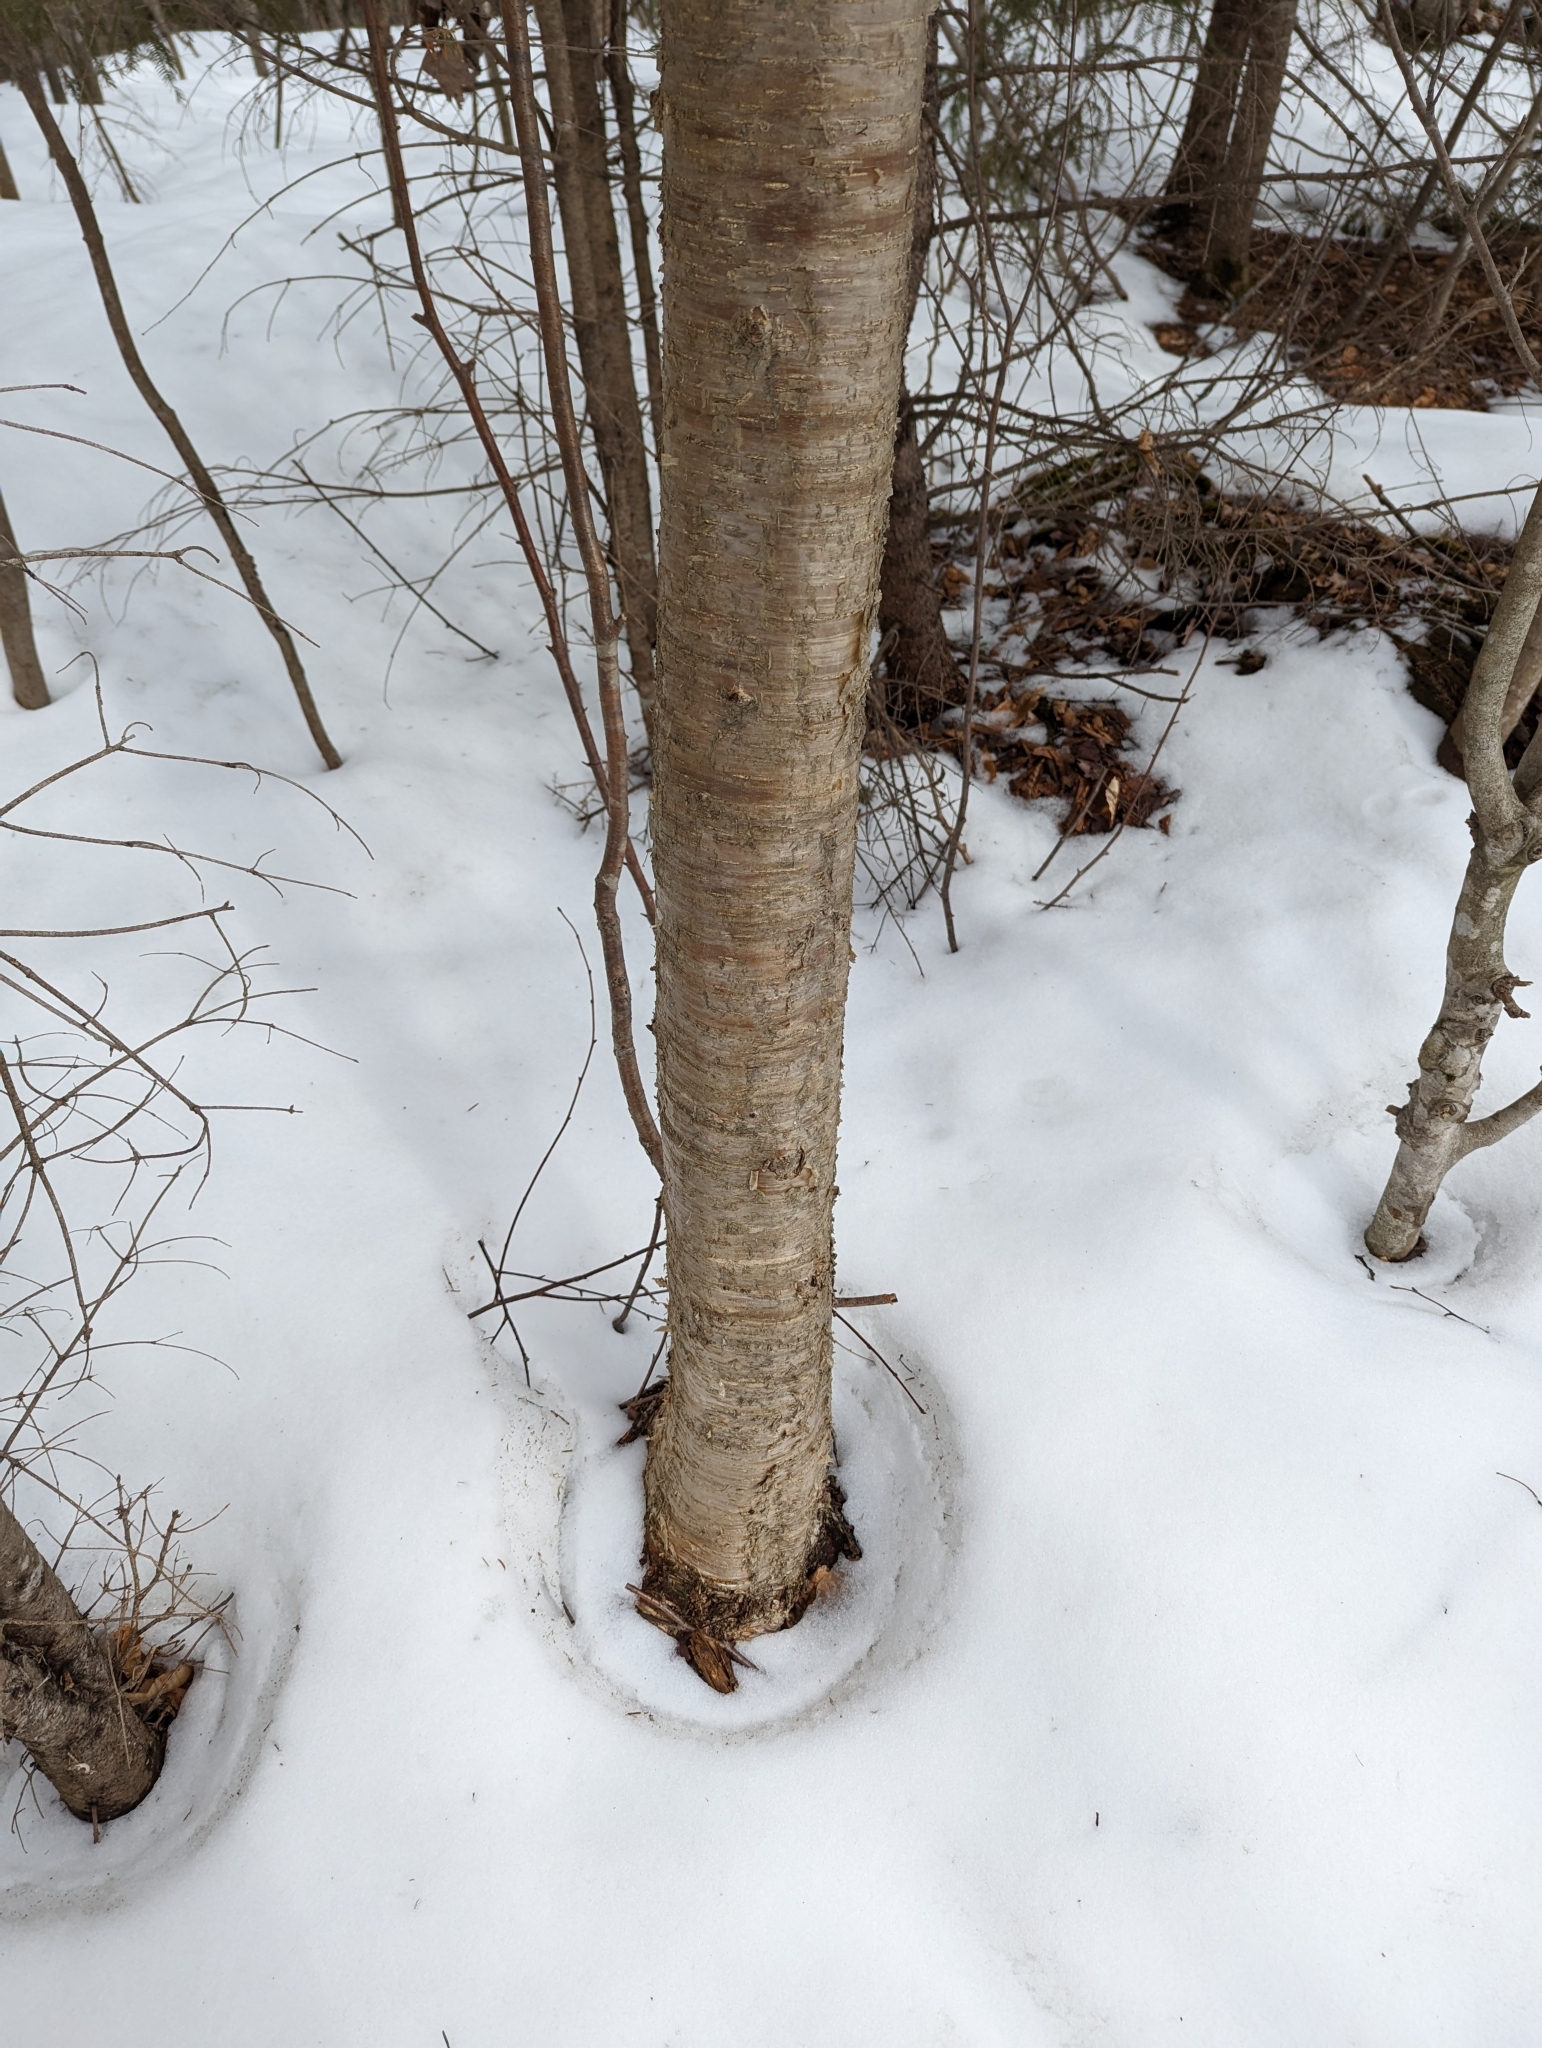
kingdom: Plantae
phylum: Tracheophyta
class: Magnoliopsida
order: Fagales
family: Betulaceae
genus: Betula
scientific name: Betula alleghaniensis
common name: Yellow birch
